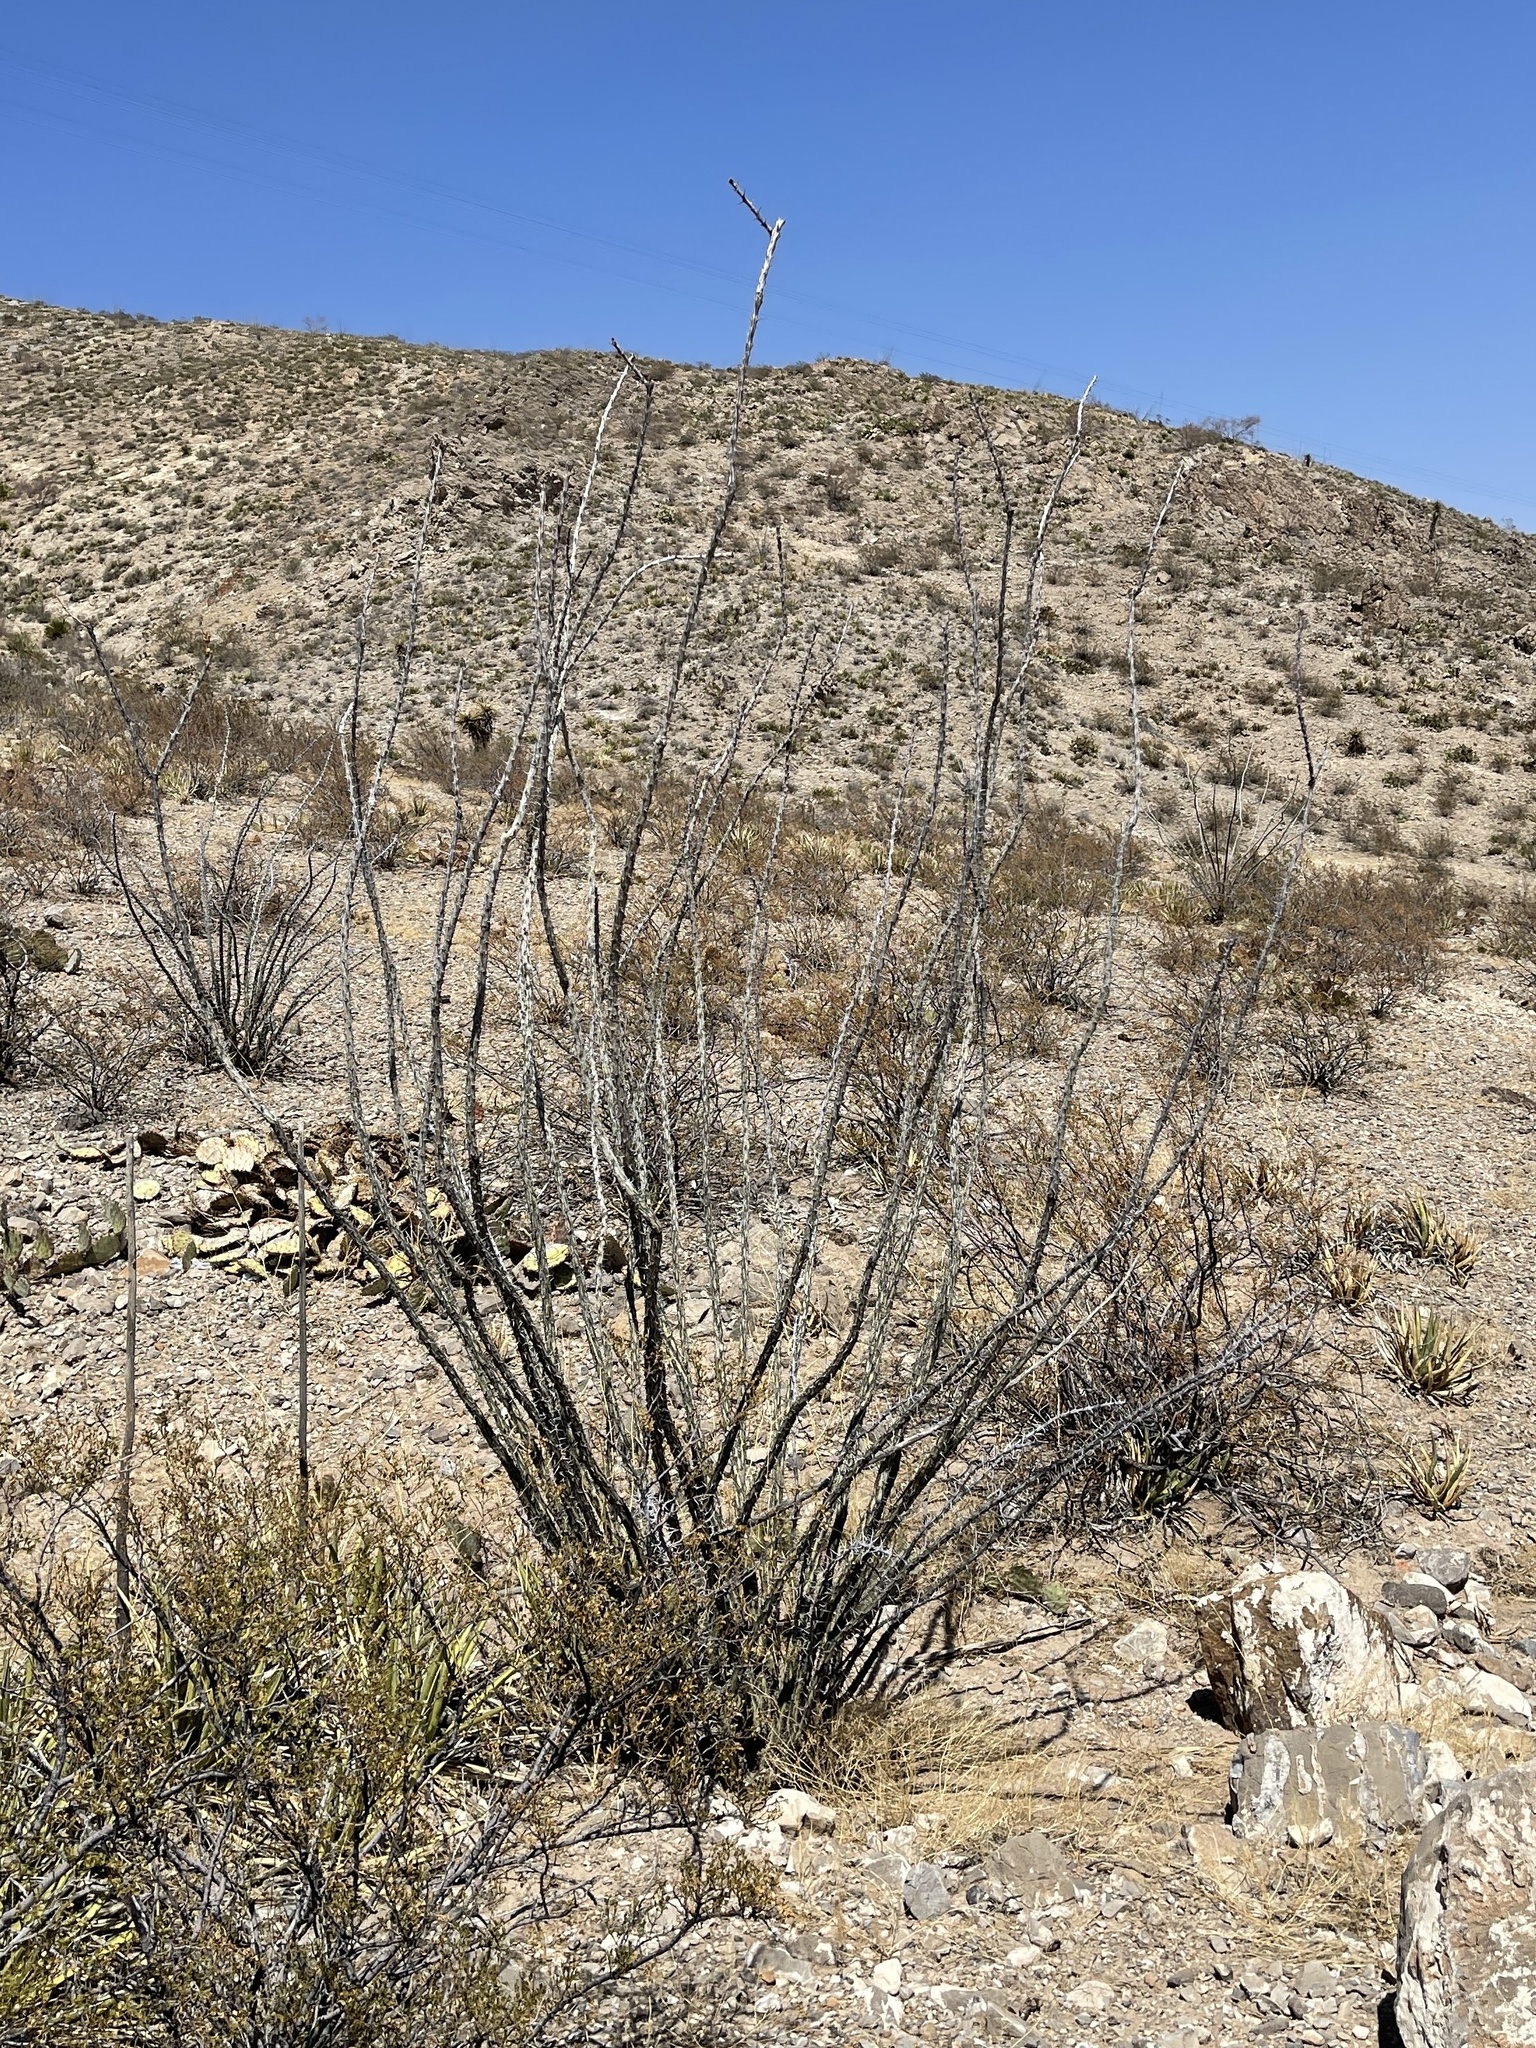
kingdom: Plantae
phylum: Tracheophyta
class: Magnoliopsida
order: Ericales
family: Fouquieriaceae
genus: Fouquieria
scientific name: Fouquieria splendens
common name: Vine-cactus
